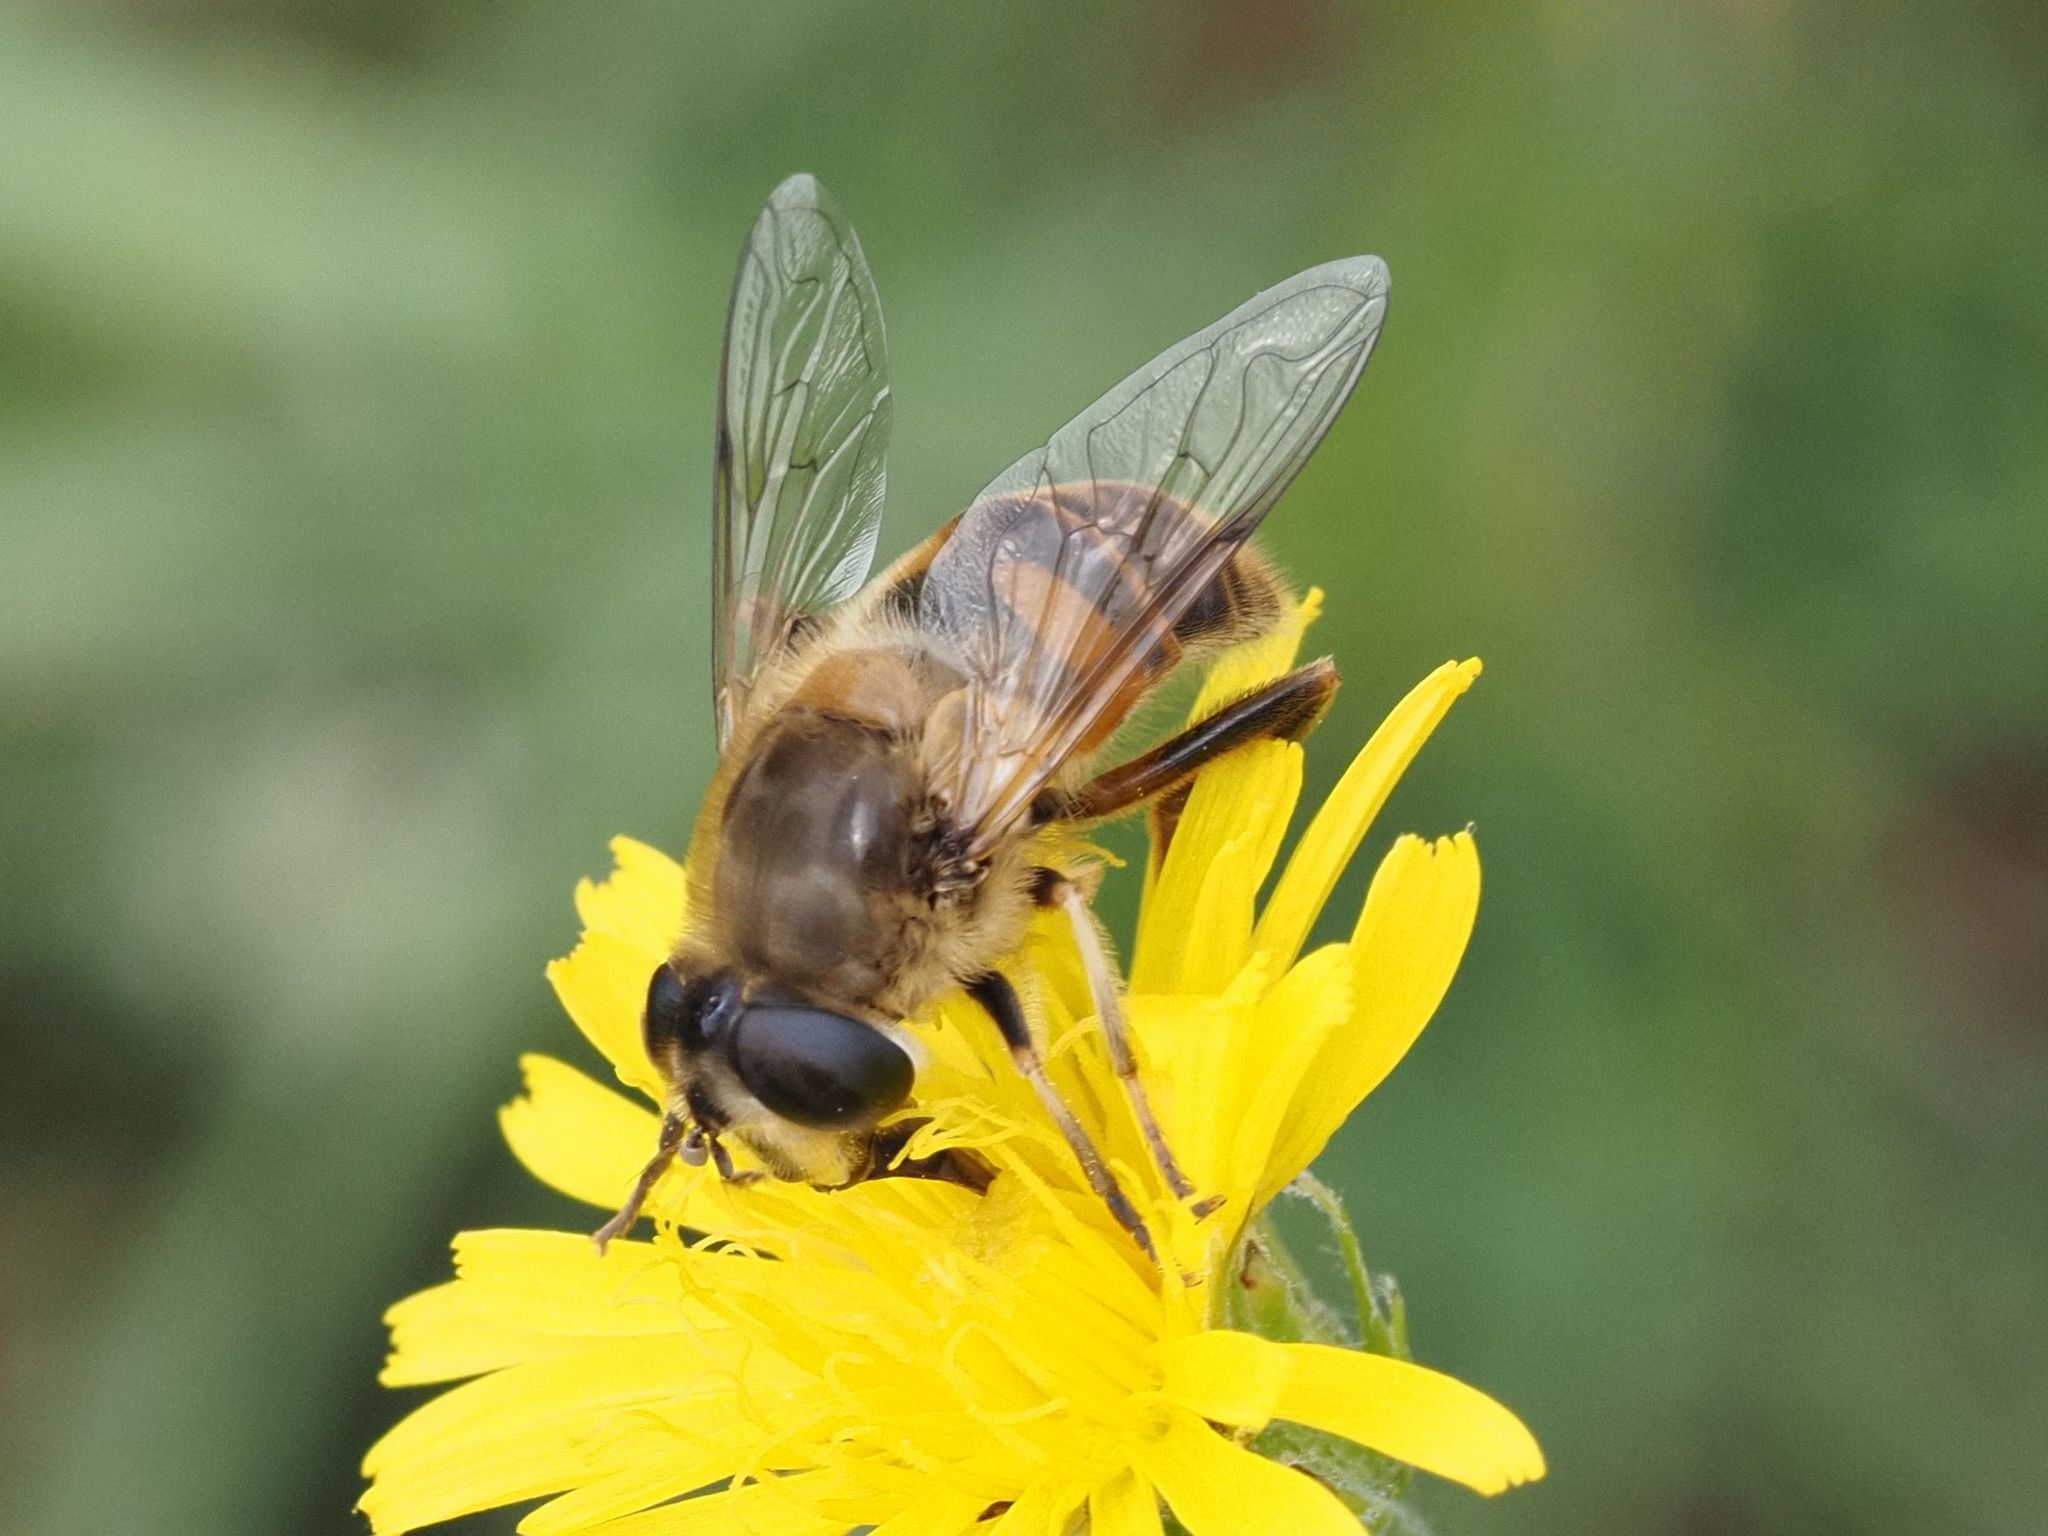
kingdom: Animalia
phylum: Arthropoda
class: Insecta
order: Diptera
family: Syrphidae
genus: Eristalis
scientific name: Eristalis tenax
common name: Drone fly
